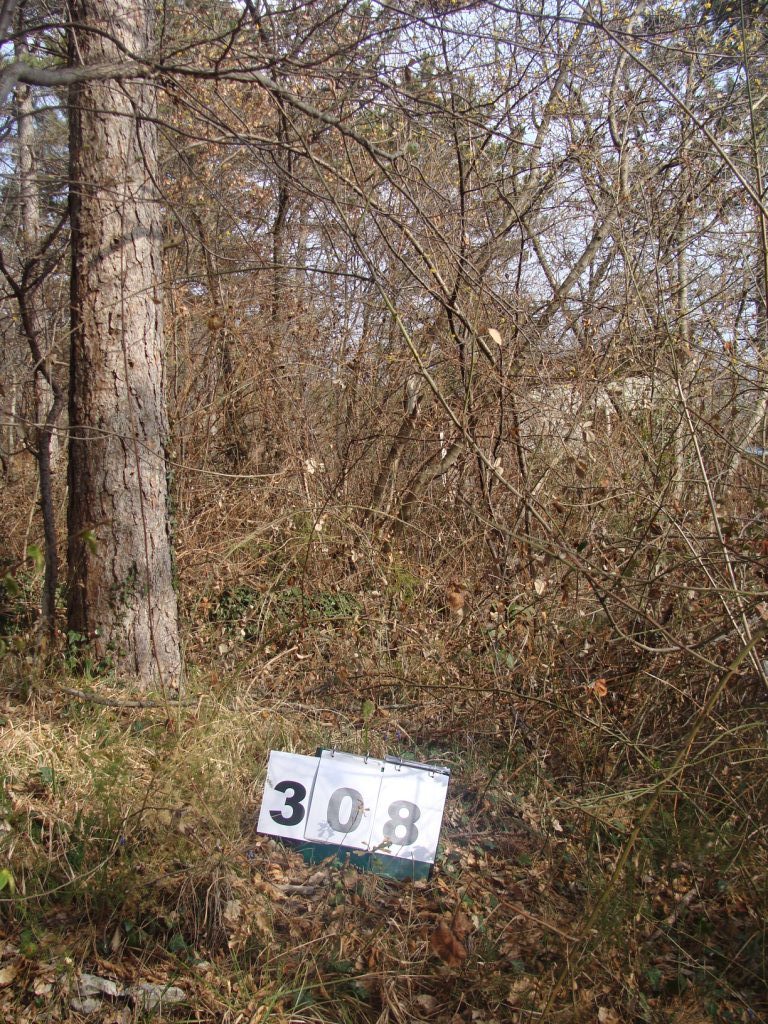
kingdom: Plantae
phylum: Tracheophyta
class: Magnoliopsida
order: Cornales
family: Cornaceae
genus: Cornus
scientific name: Cornus mas
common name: Cornelian-cherry
